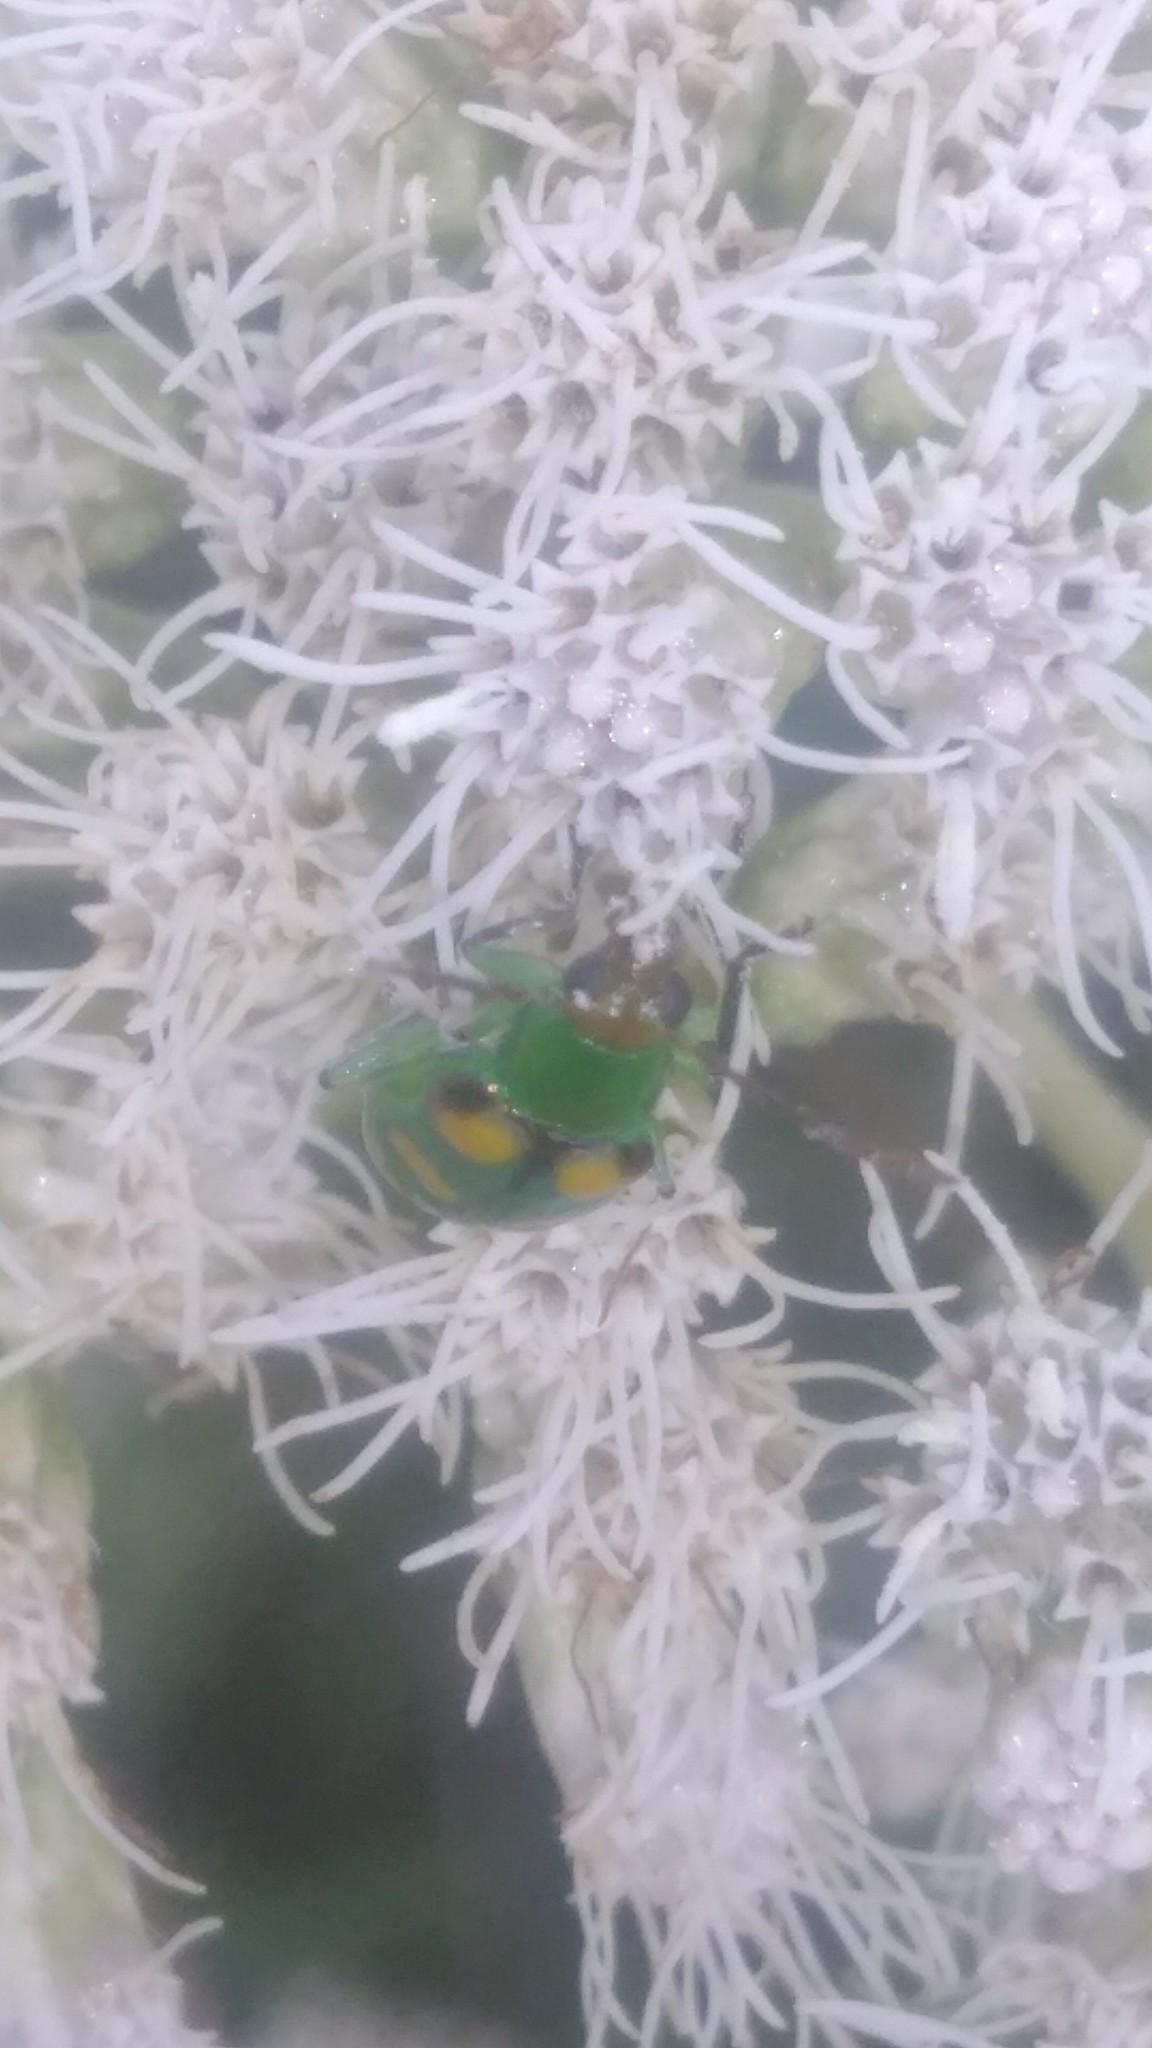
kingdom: Animalia
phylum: Arthropoda
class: Insecta
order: Coleoptera
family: Chrysomelidae
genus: Diabrotica
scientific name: Diabrotica speciosa
